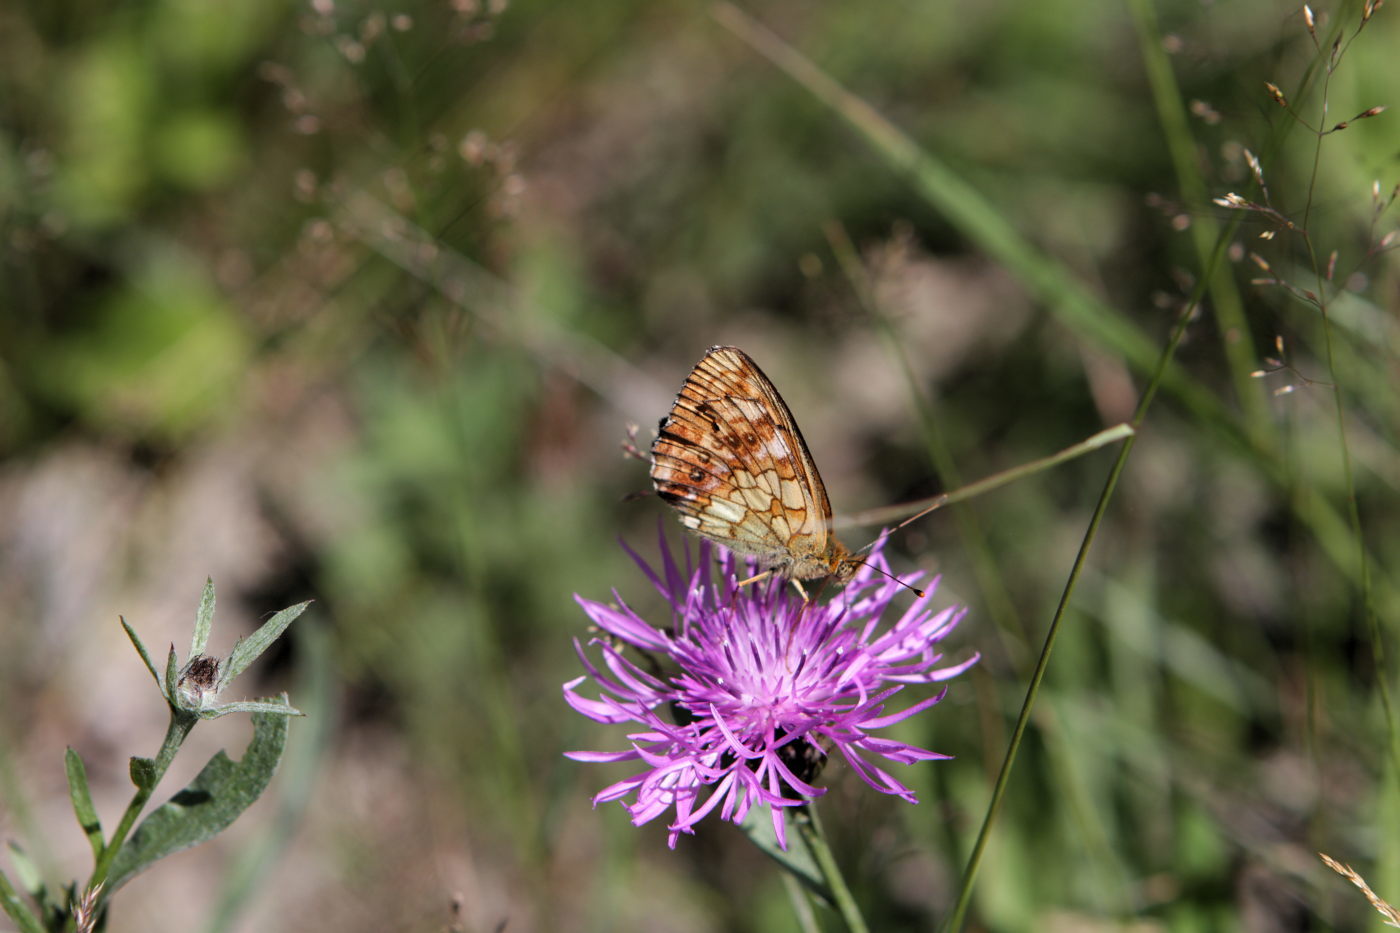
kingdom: Animalia
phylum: Arthropoda
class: Insecta
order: Lepidoptera
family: Nymphalidae
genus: Brenthis
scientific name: Brenthis ino
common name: Lesser marbled fritillary
